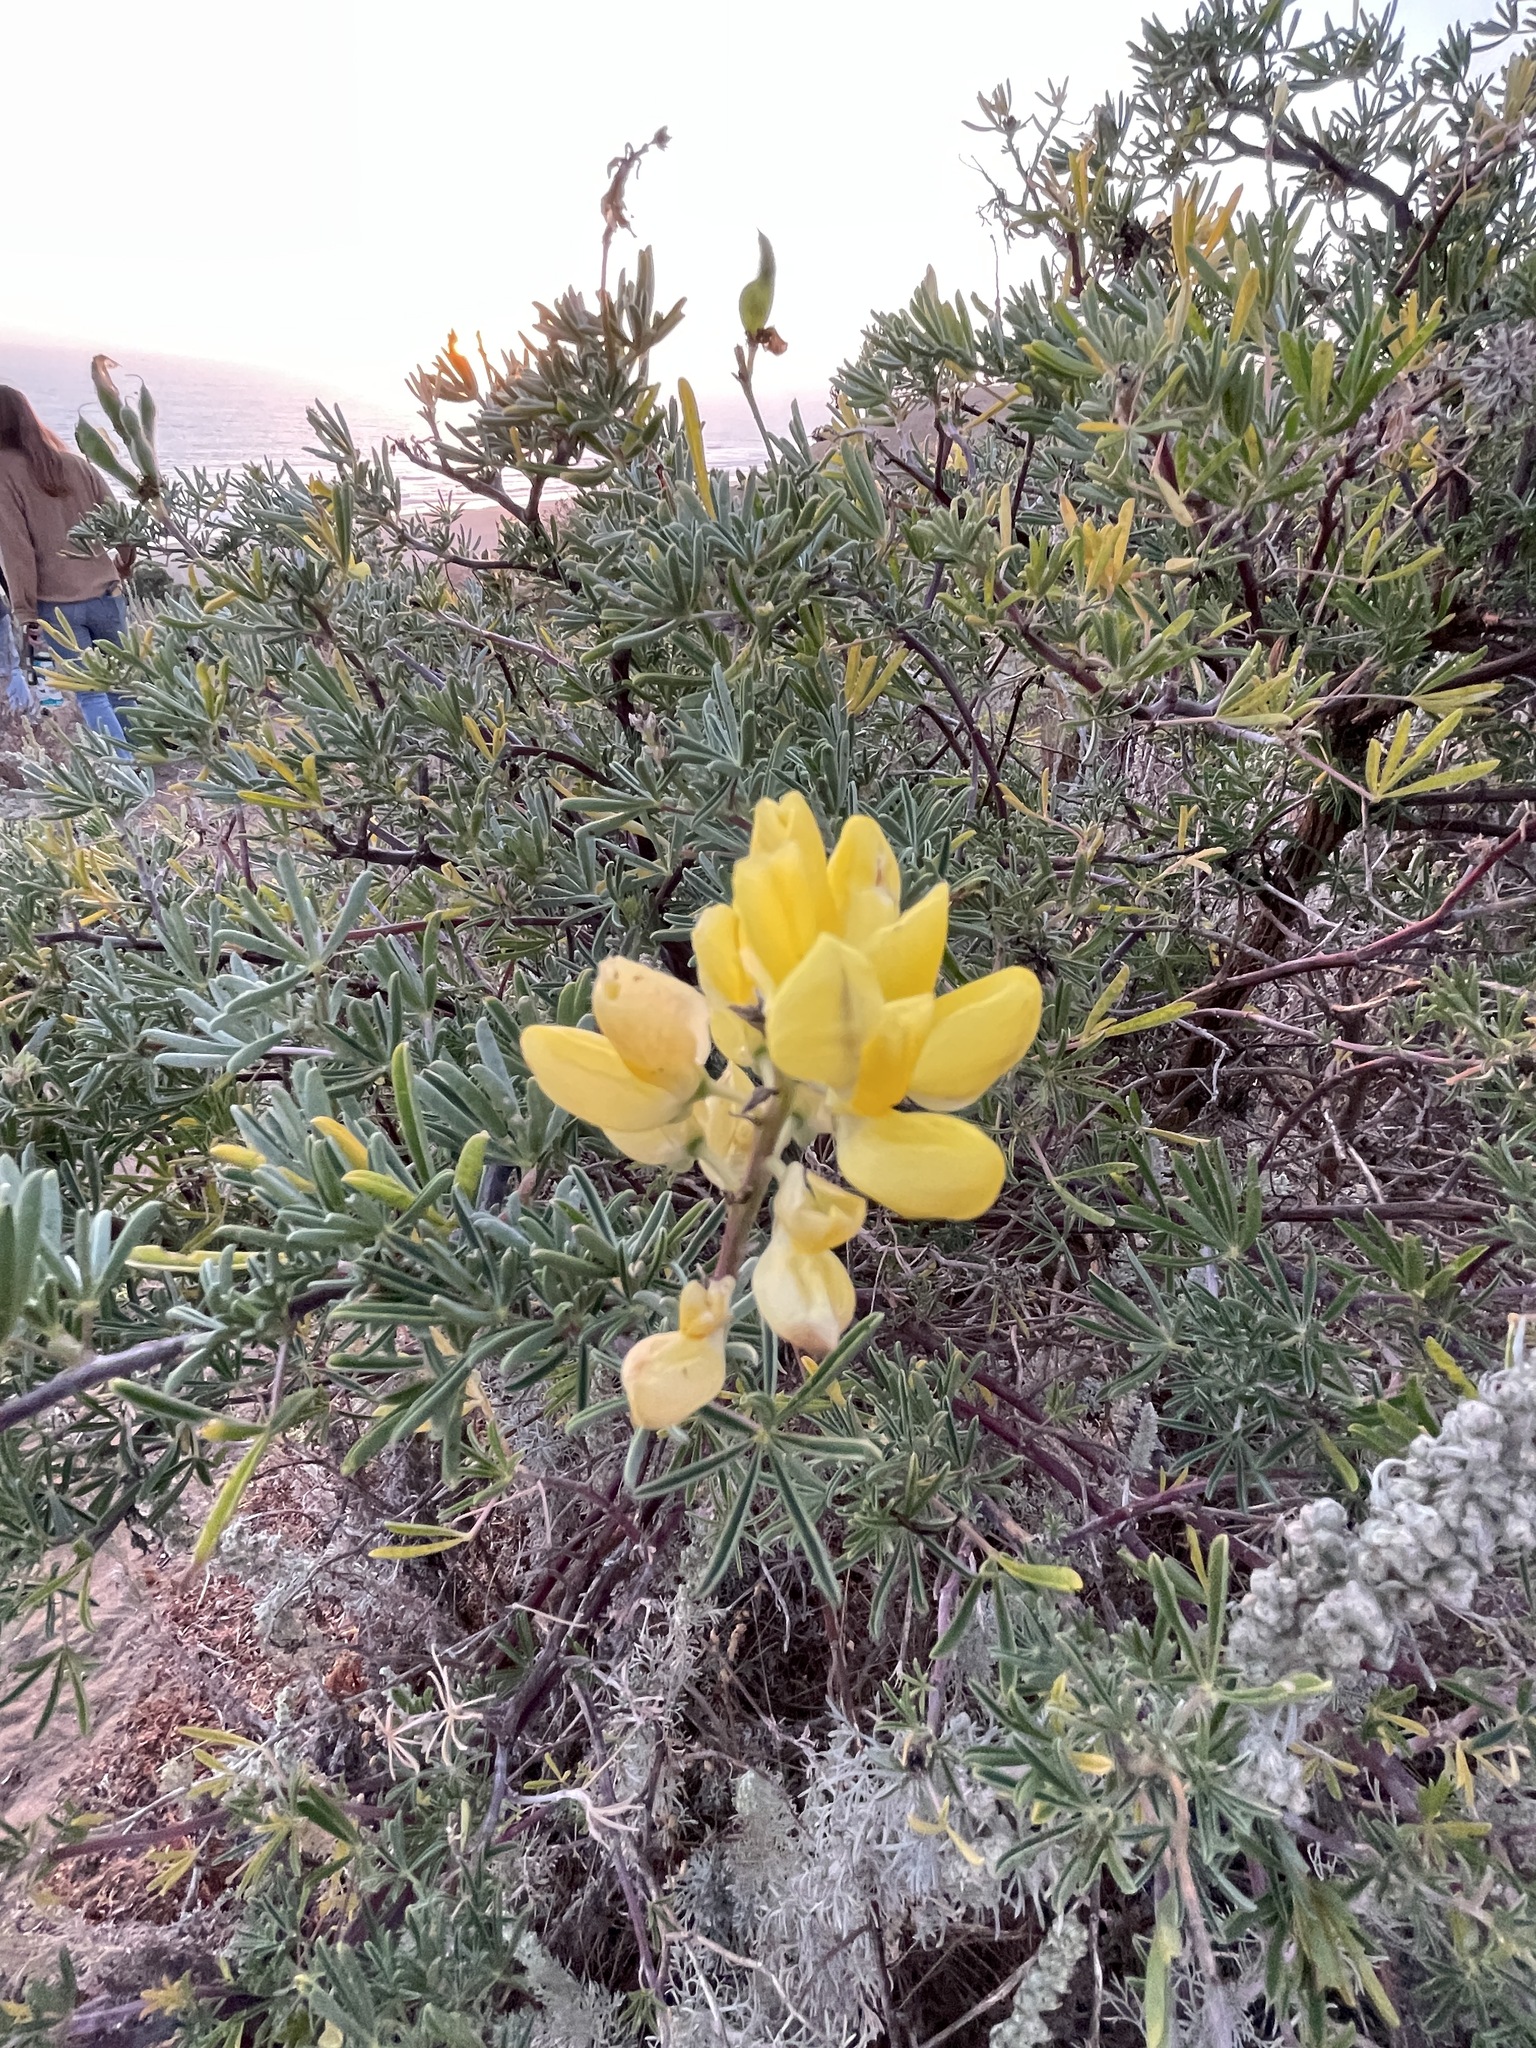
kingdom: Plantae
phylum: Tracheophyta
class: Magnoliopsida
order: Fabales
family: Fabaceae
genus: Lupinus
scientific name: Lupinus arboreus
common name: Yellow bush lupine
